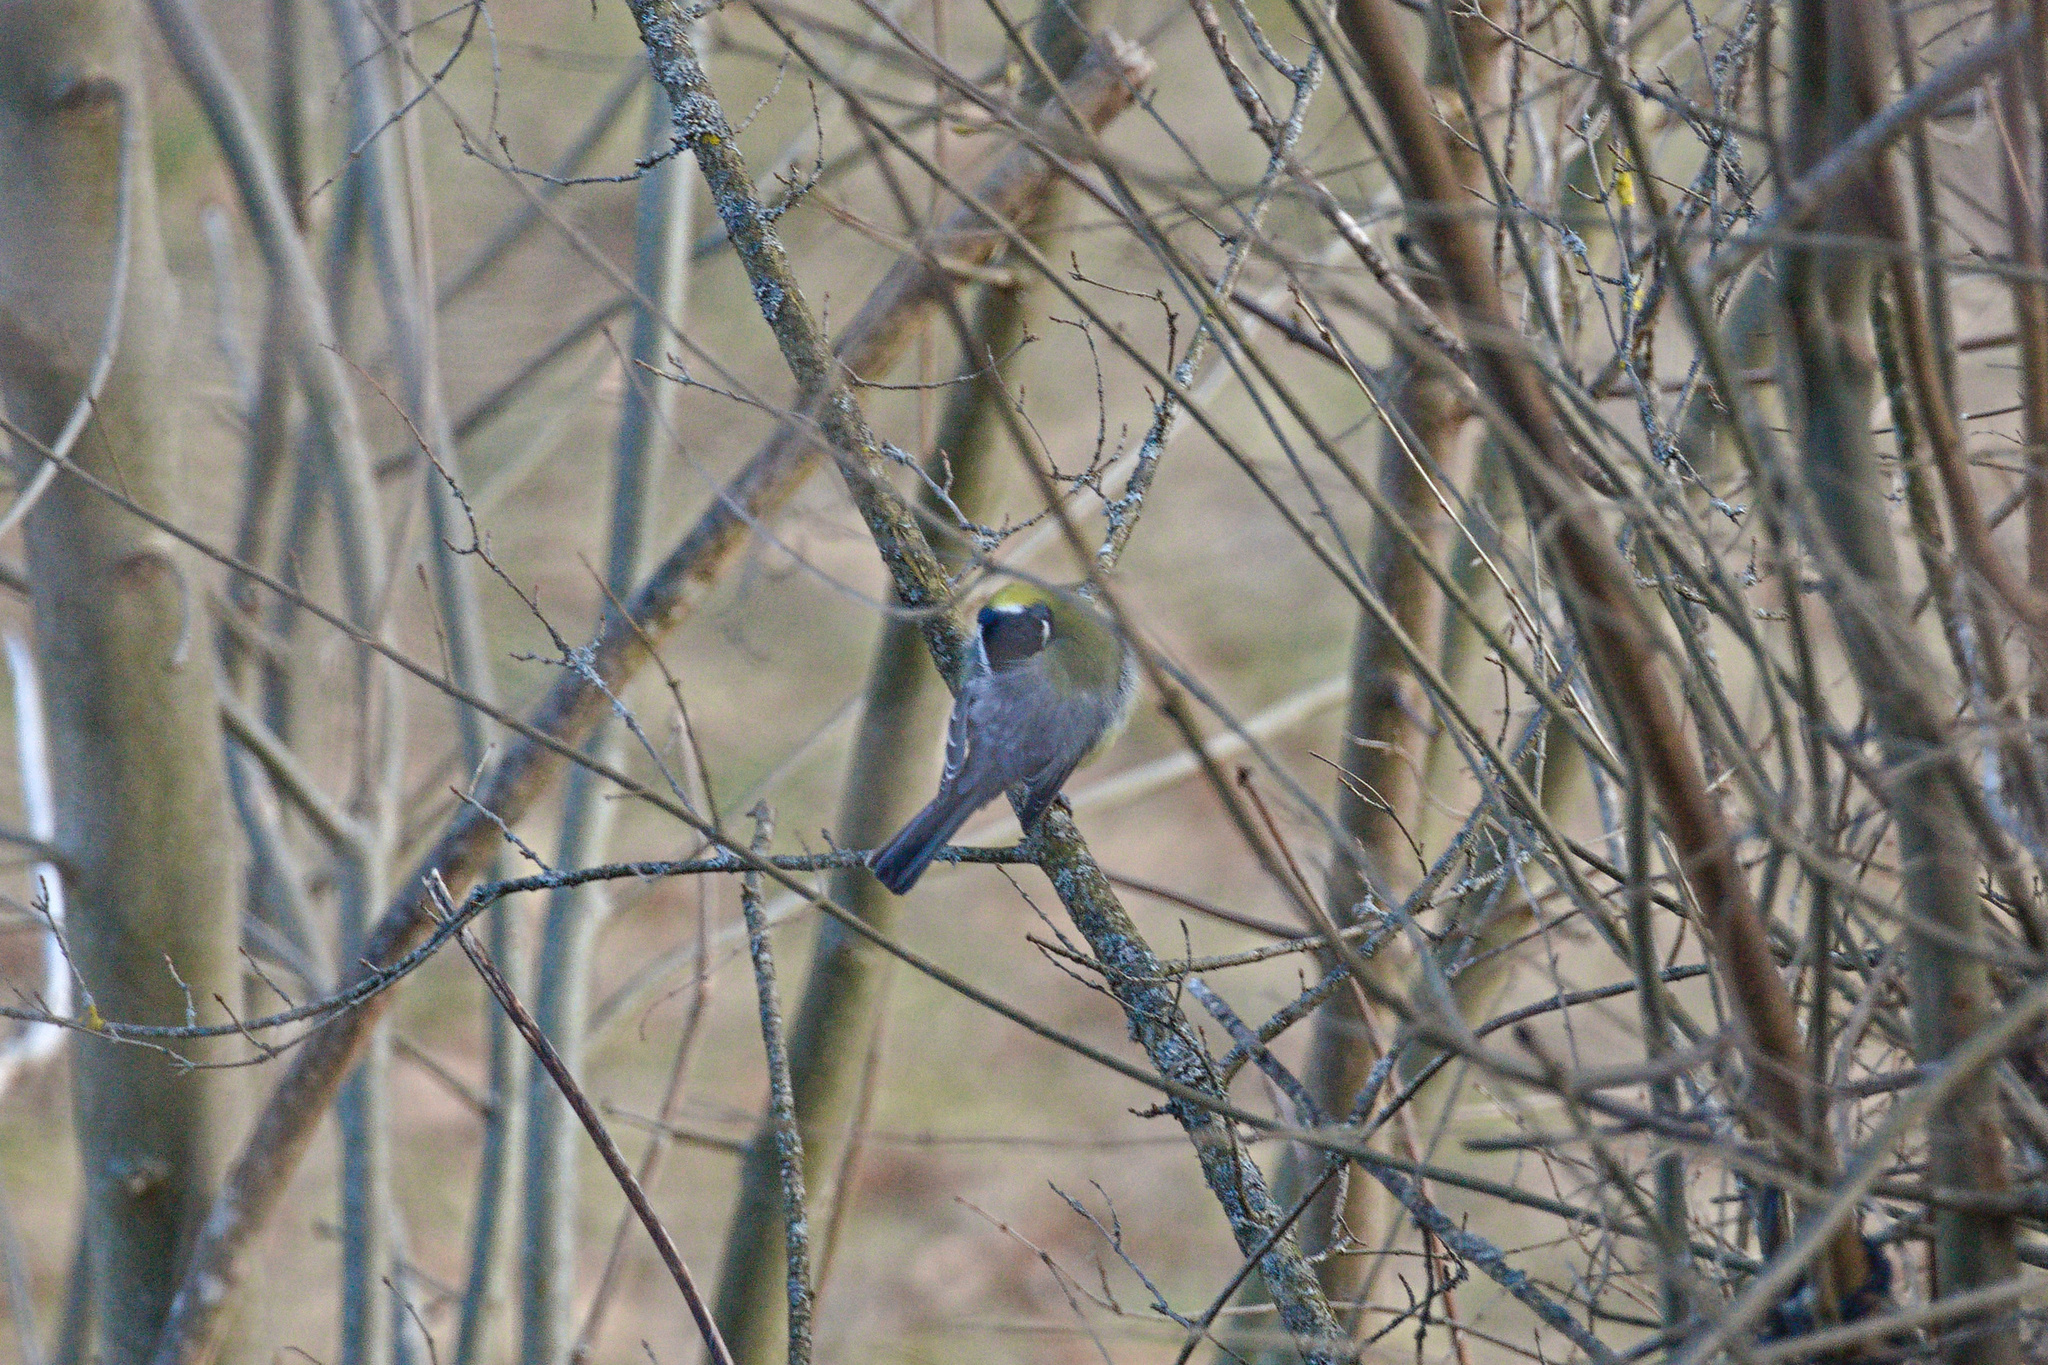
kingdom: Animalia
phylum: Chordata
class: Aves
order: Passeriformes
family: Paridae
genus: Parus
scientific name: Parus major
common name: Great tit
